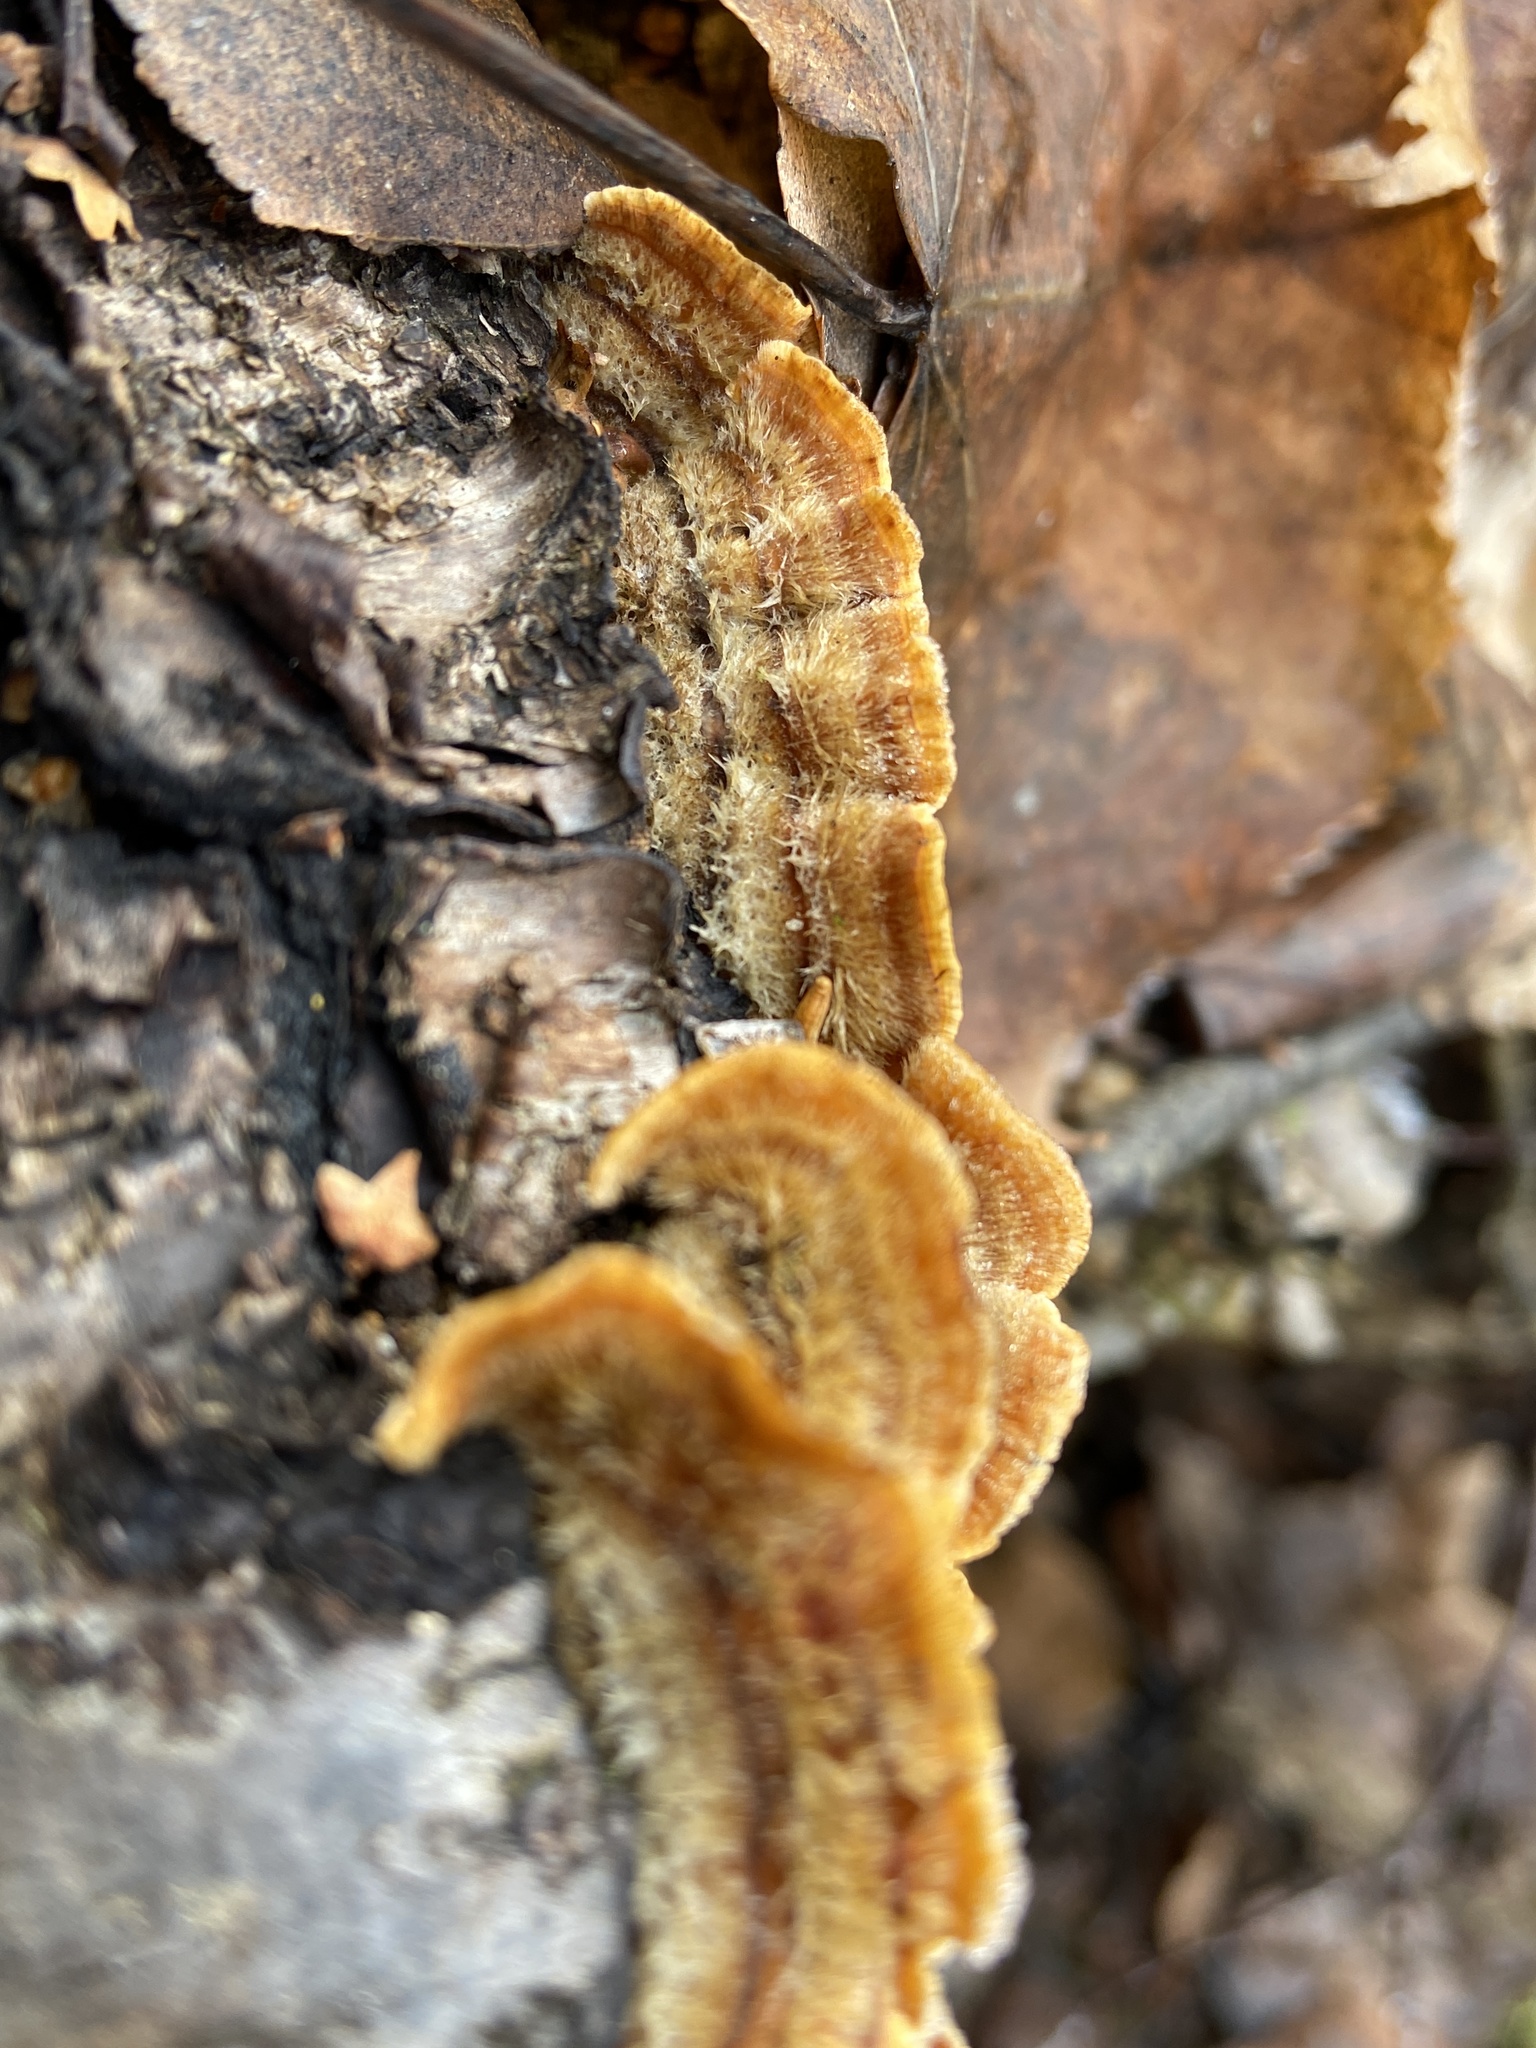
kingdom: Fungi
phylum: Basidiomycota
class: Agaricomycetes
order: Russulales
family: Stereaceae
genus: Stereum
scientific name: Stereum hirsutum
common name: Hairy curtain crust
